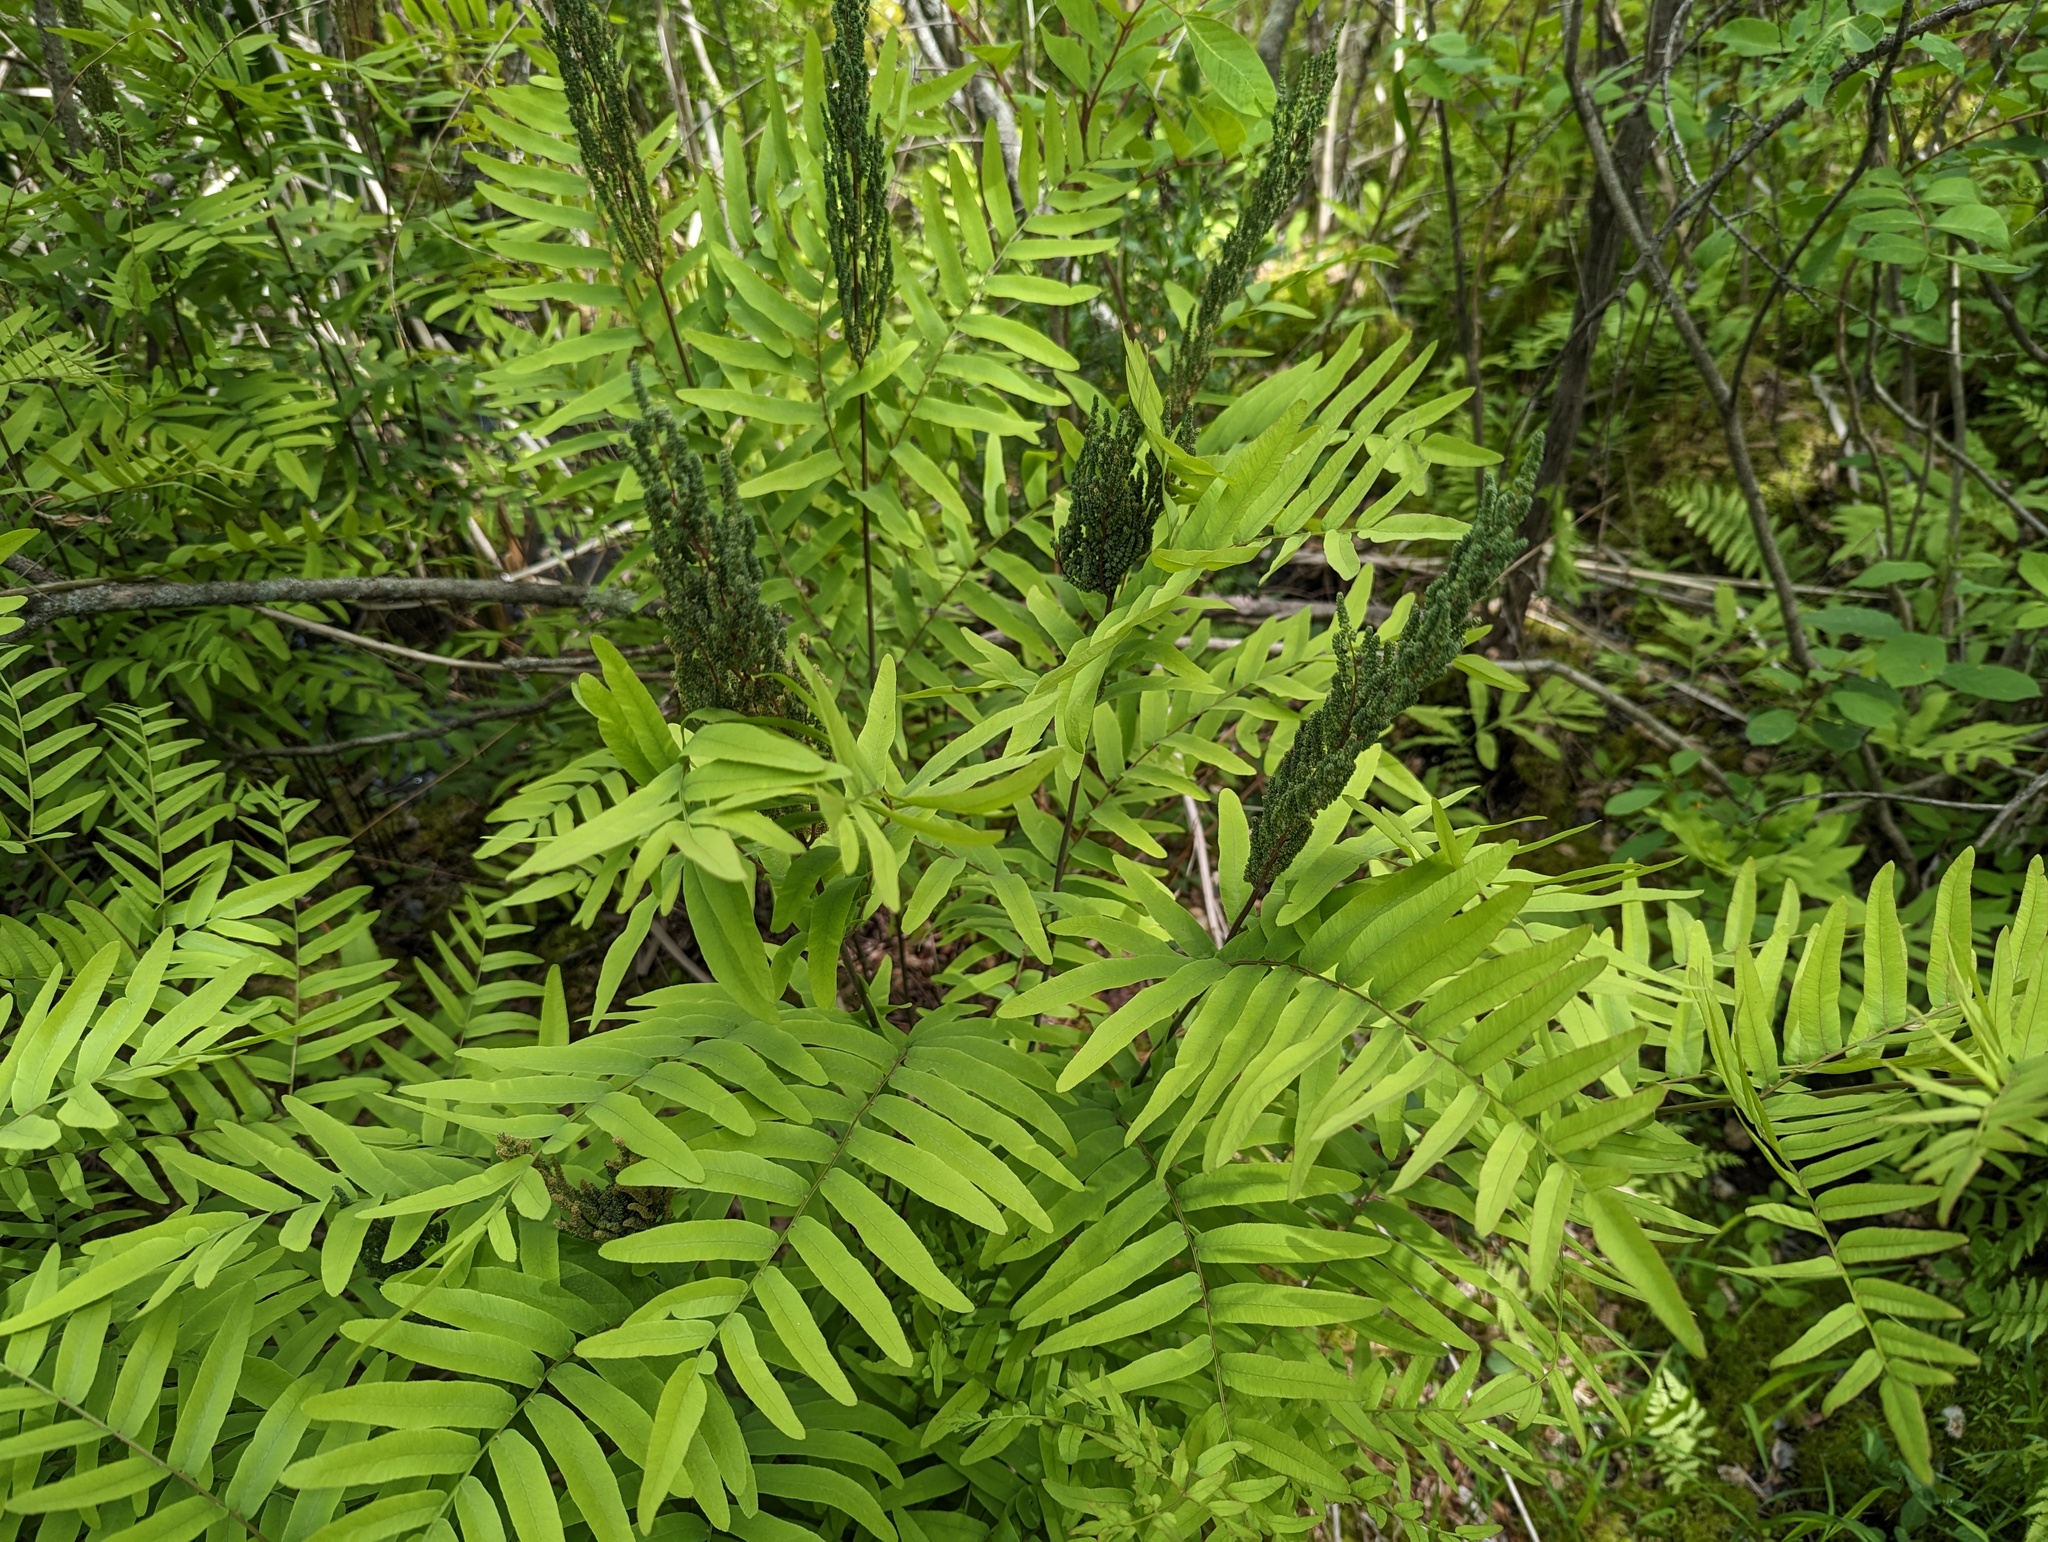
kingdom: Plantae
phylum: Tracheophyta
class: Polypodiopsida
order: Osmundales
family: Osmundaceae
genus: Osmunda
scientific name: Osmunda spectabilis
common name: American royal fern
